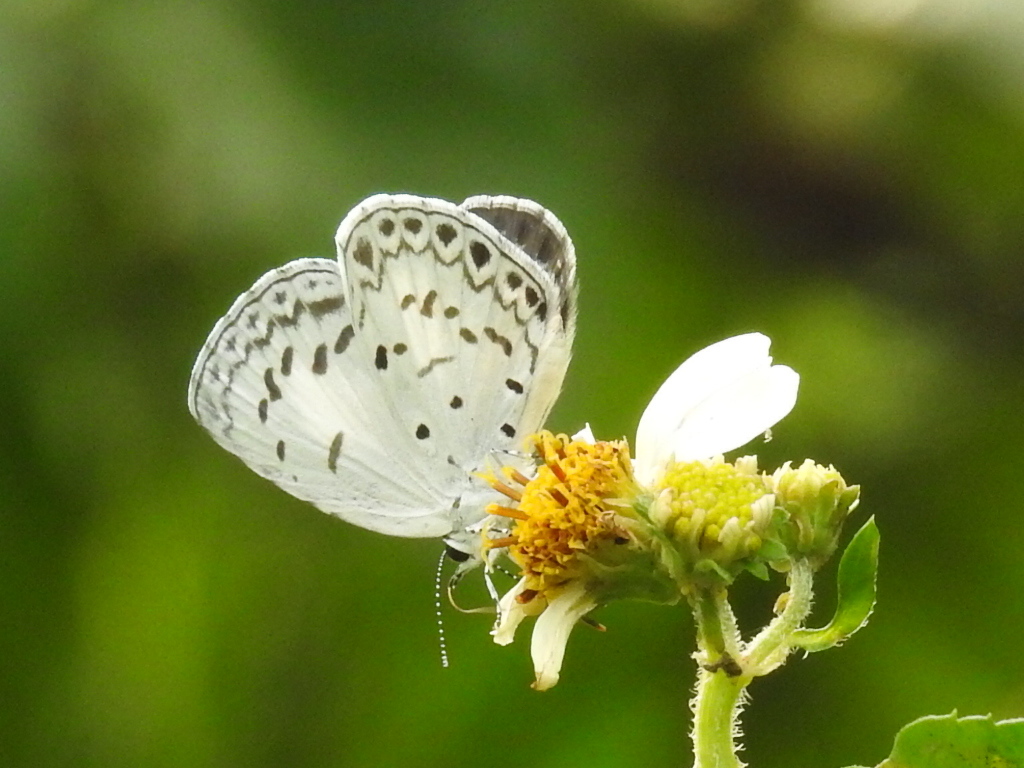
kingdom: Animalia
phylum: Arthropoda
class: Insecta
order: Lepidoptera
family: Lycaenidae
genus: Acytolepis
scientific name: Acytolepis puspa
